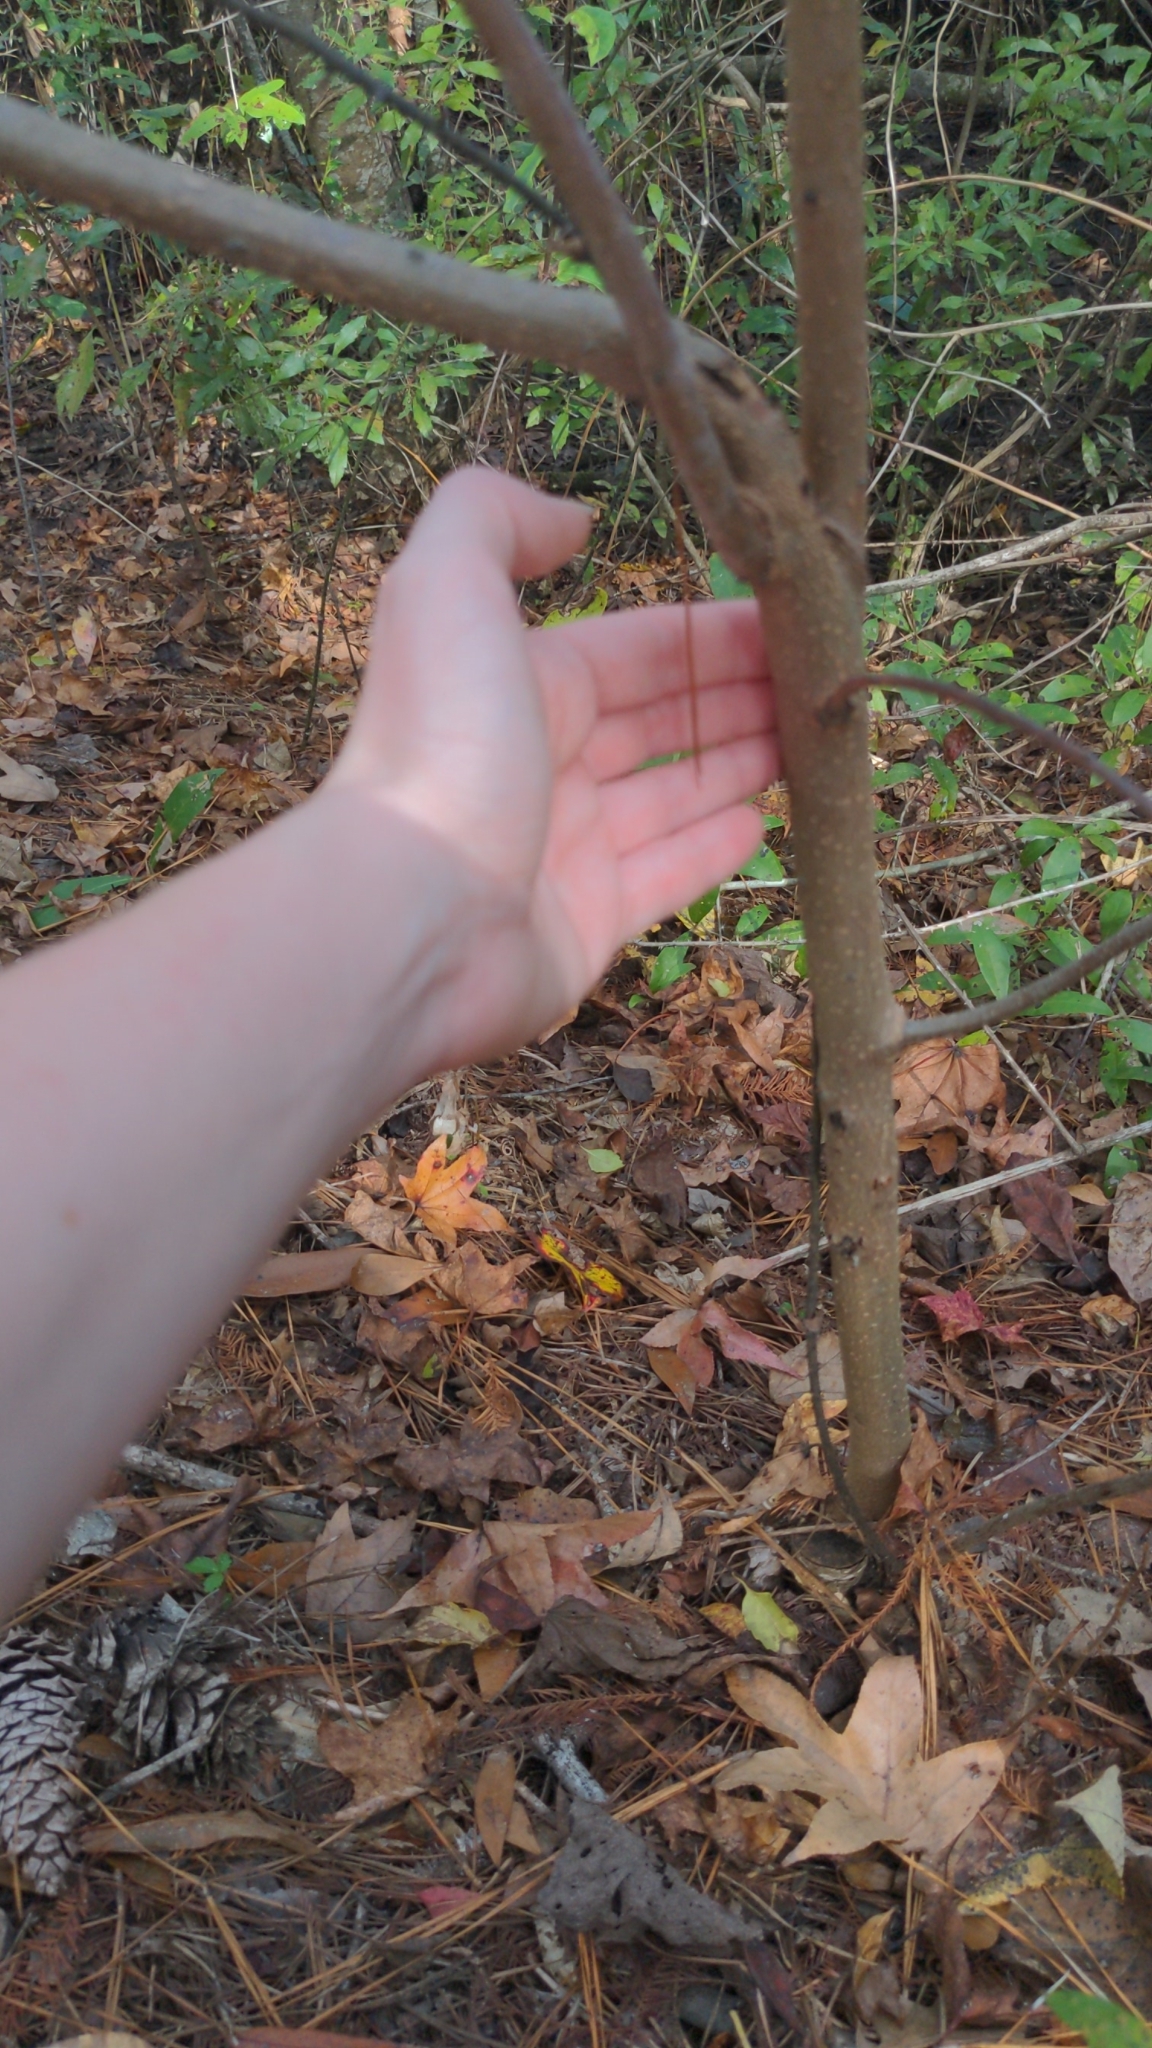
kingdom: Plantae
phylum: Tracheophyta
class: Magnoliopsida
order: Ericales
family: Ebenaceae
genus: Diospyros
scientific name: Diospyros virginiana
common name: Persimmon
